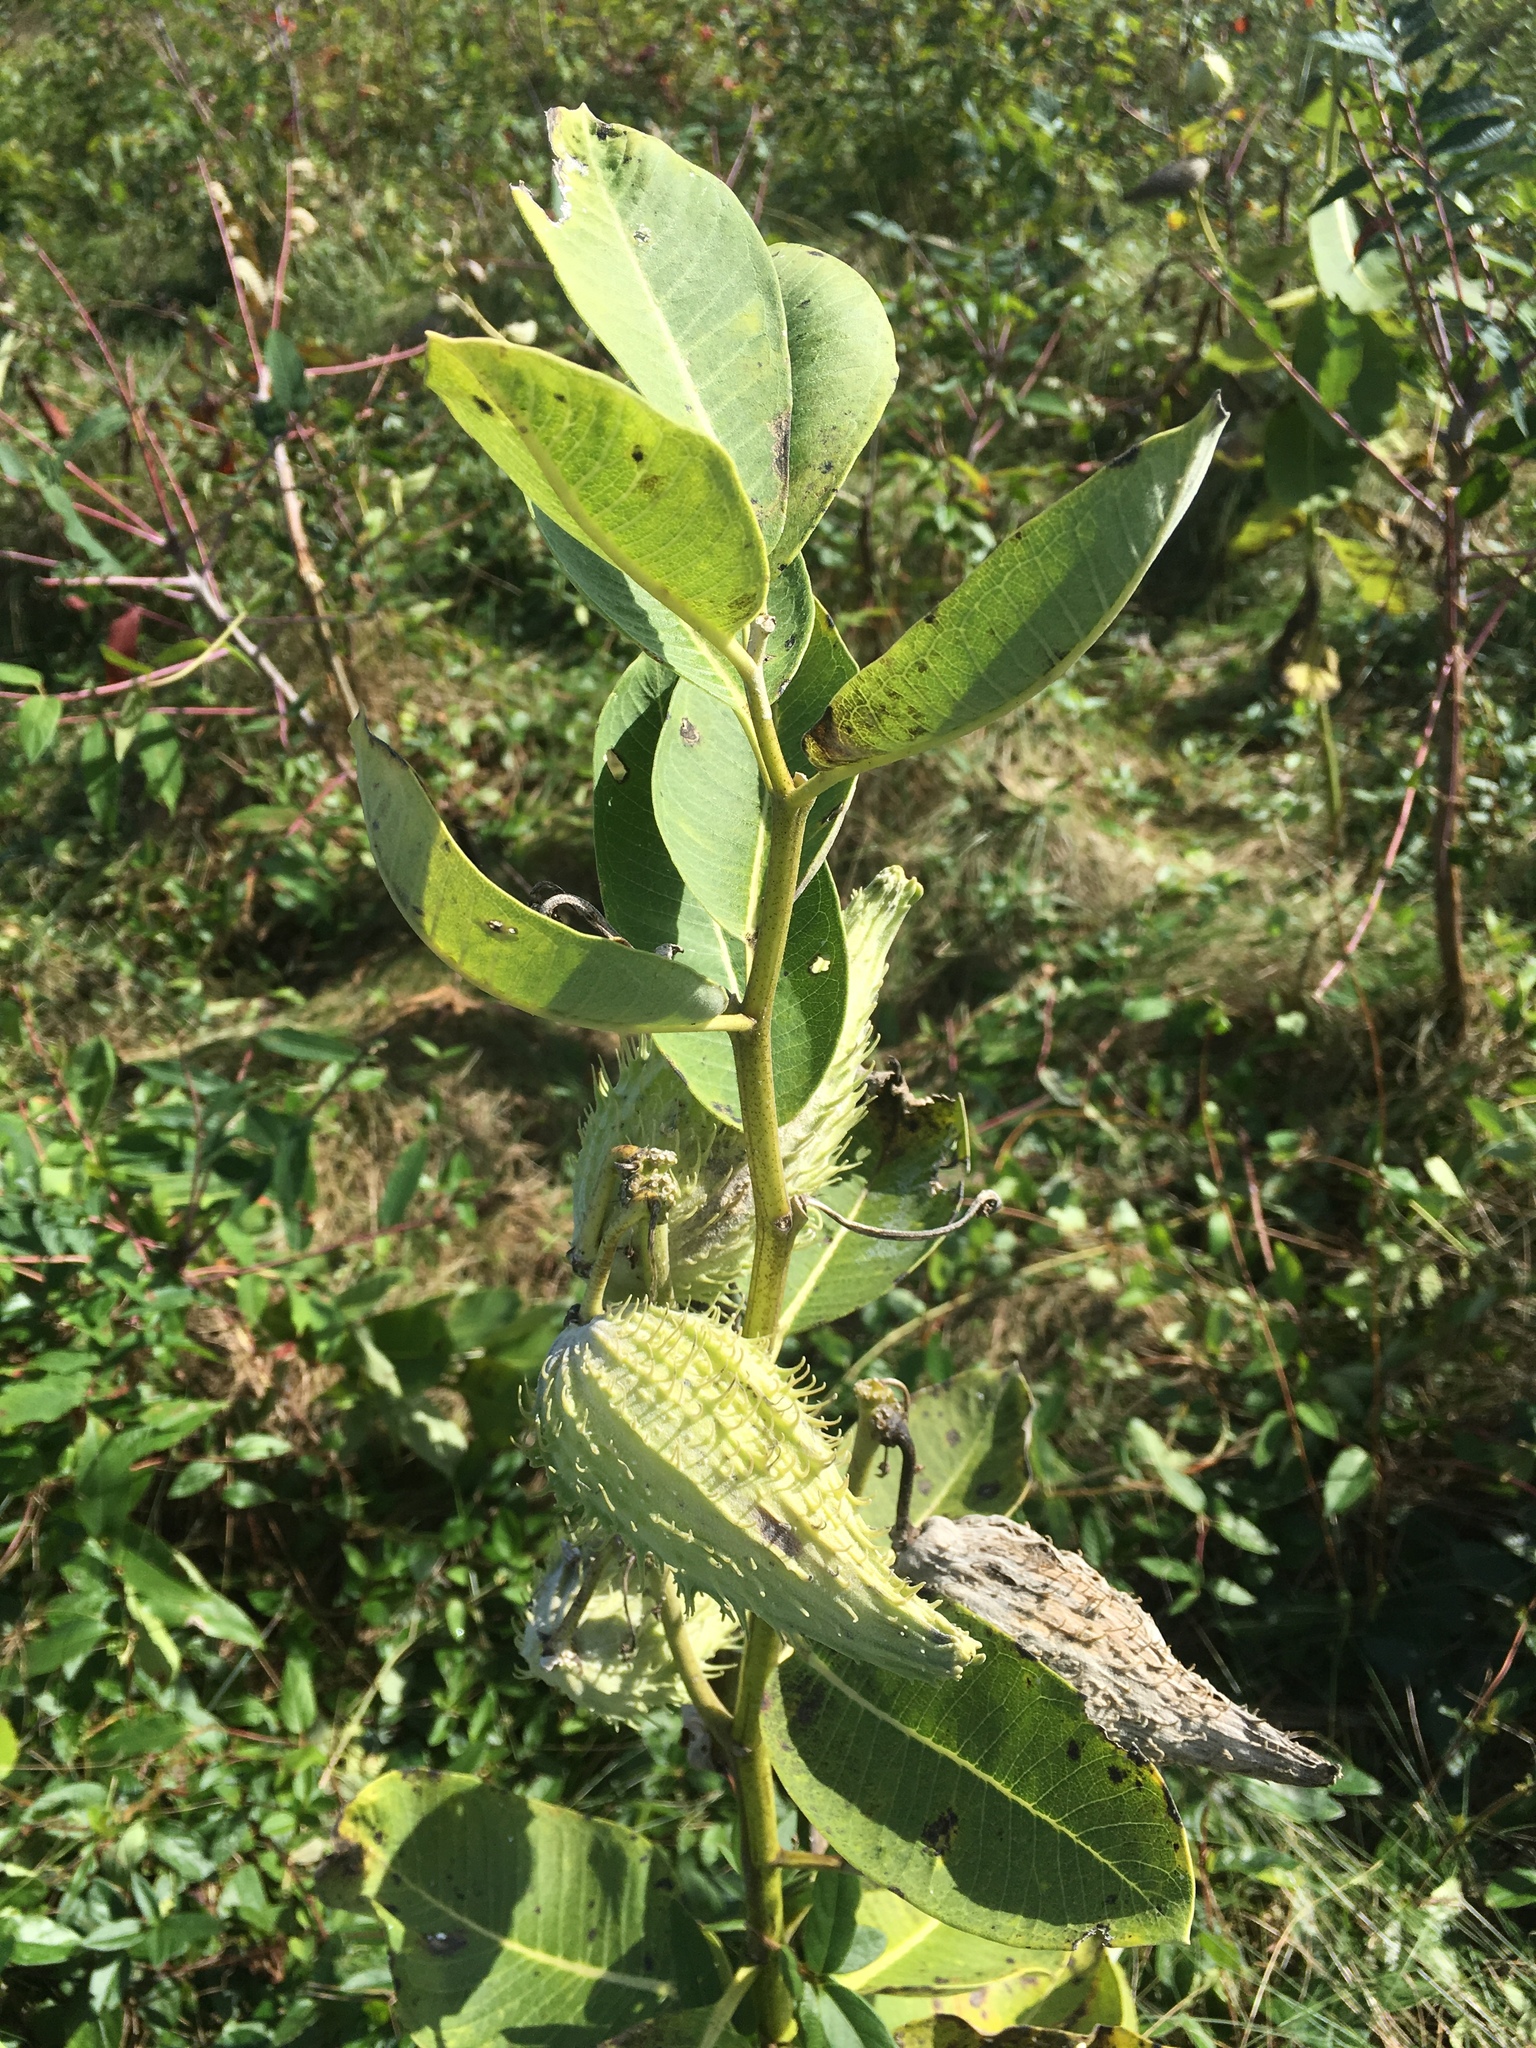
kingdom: Plantae
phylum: Tracheophyta
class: Magnoliopsida
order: Gentianales
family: Apocynaceae
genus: Asclepias
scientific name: Asclepias syriaca
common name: Common milkweed
